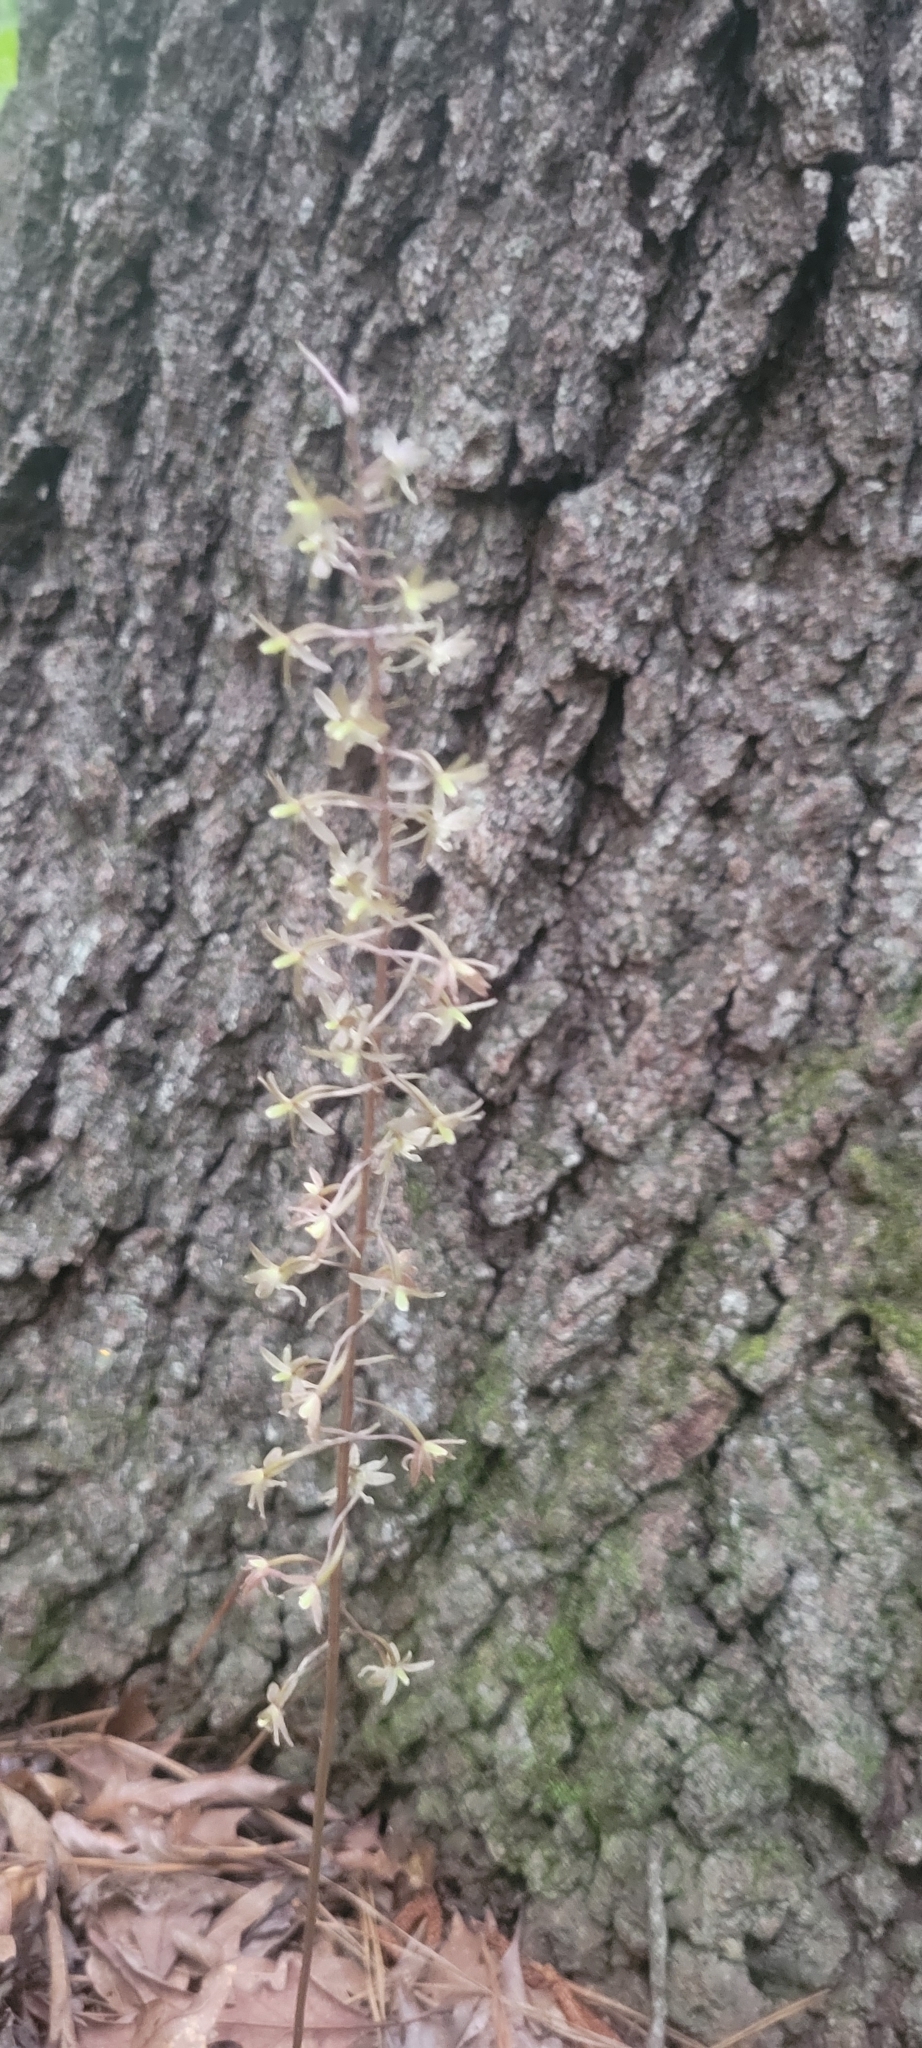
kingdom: Plantae
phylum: Tracheophyta
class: Liliopsida
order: Asparagales
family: Orchidaceae
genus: Tipularia
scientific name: Tipularia discolor
